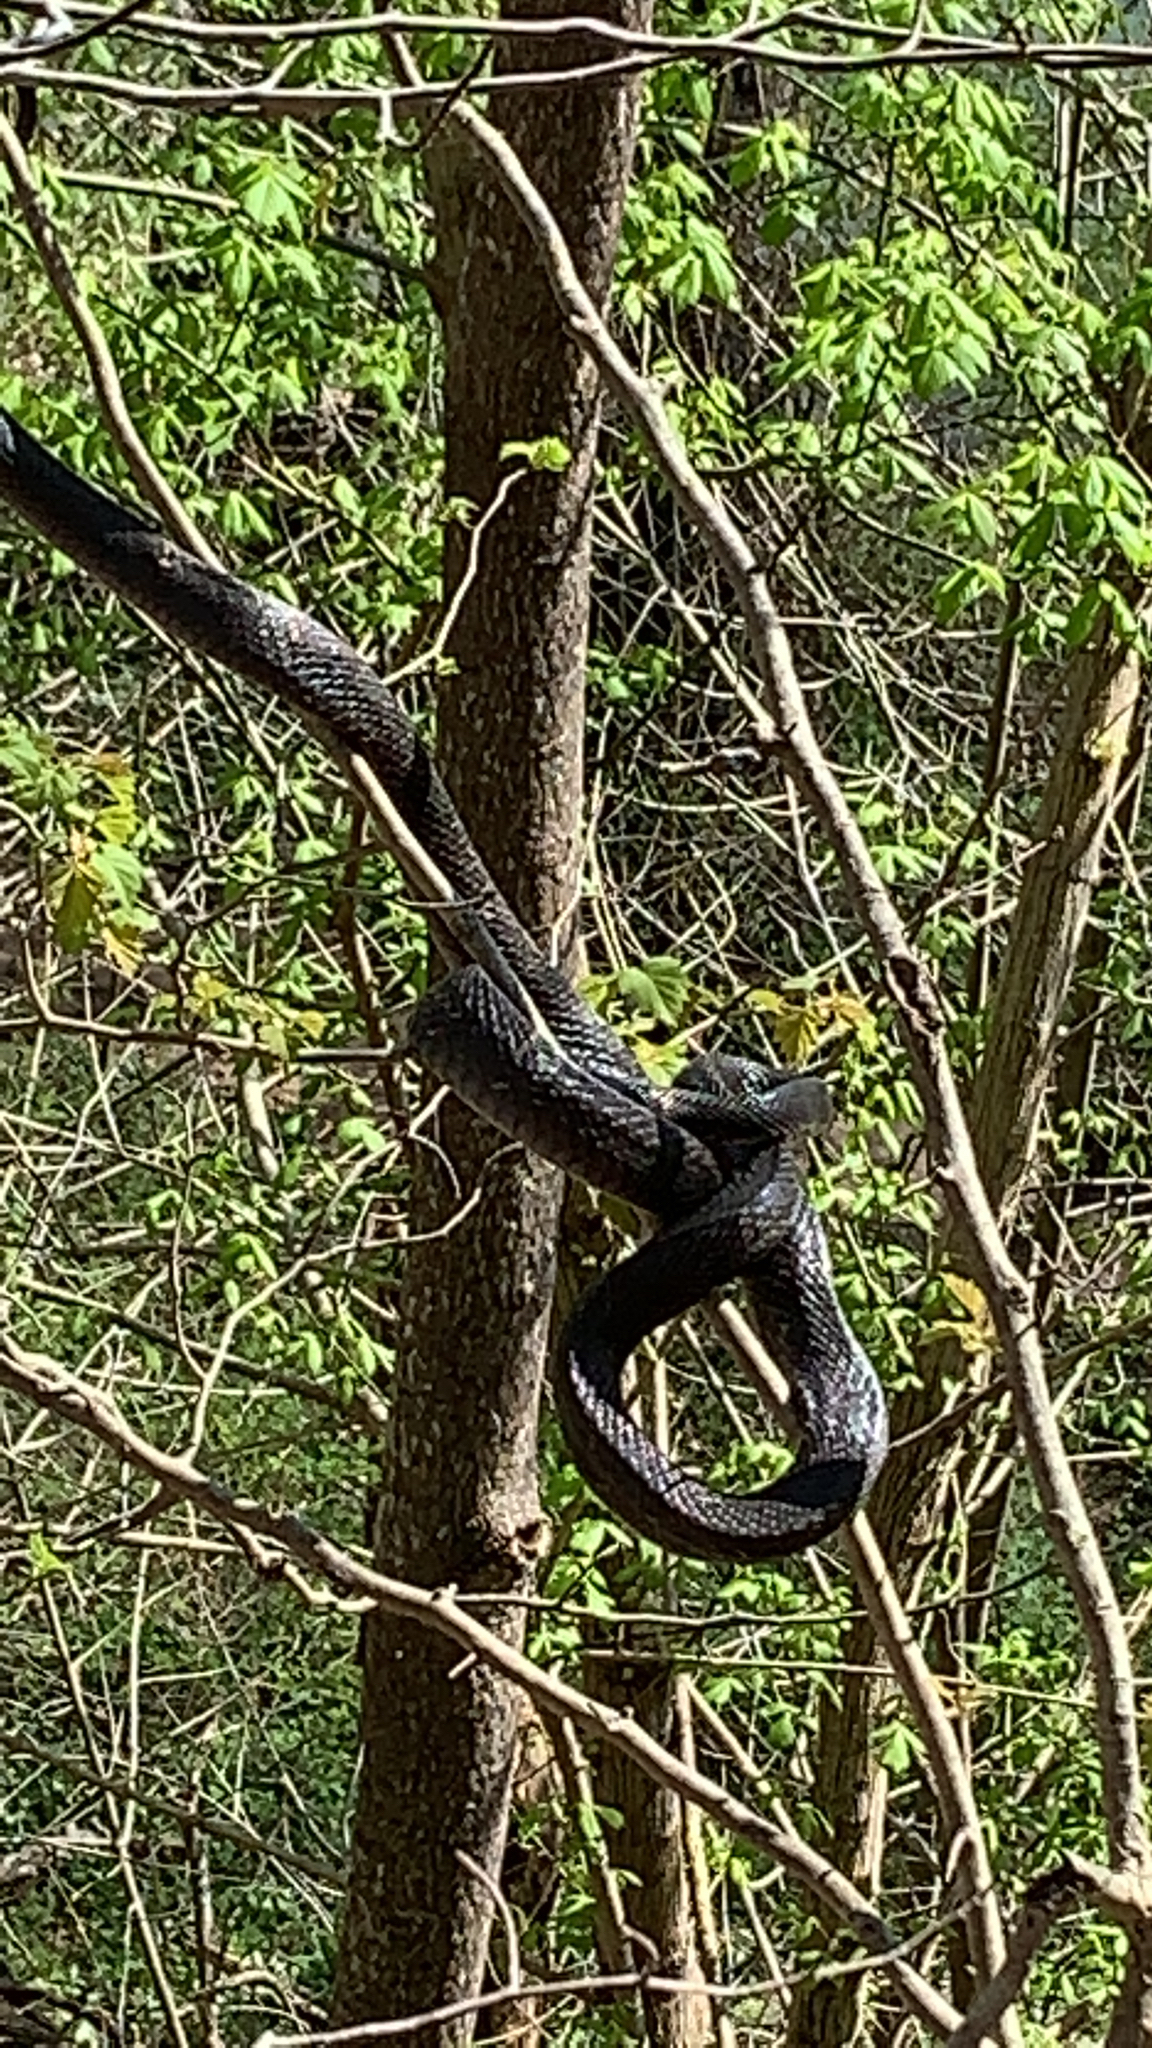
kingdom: Animalia
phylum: Chordata
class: Squamata
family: Colubridae
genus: Pantherophis
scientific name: Pantherophis alleghaniensis
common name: Eastern rat snake
